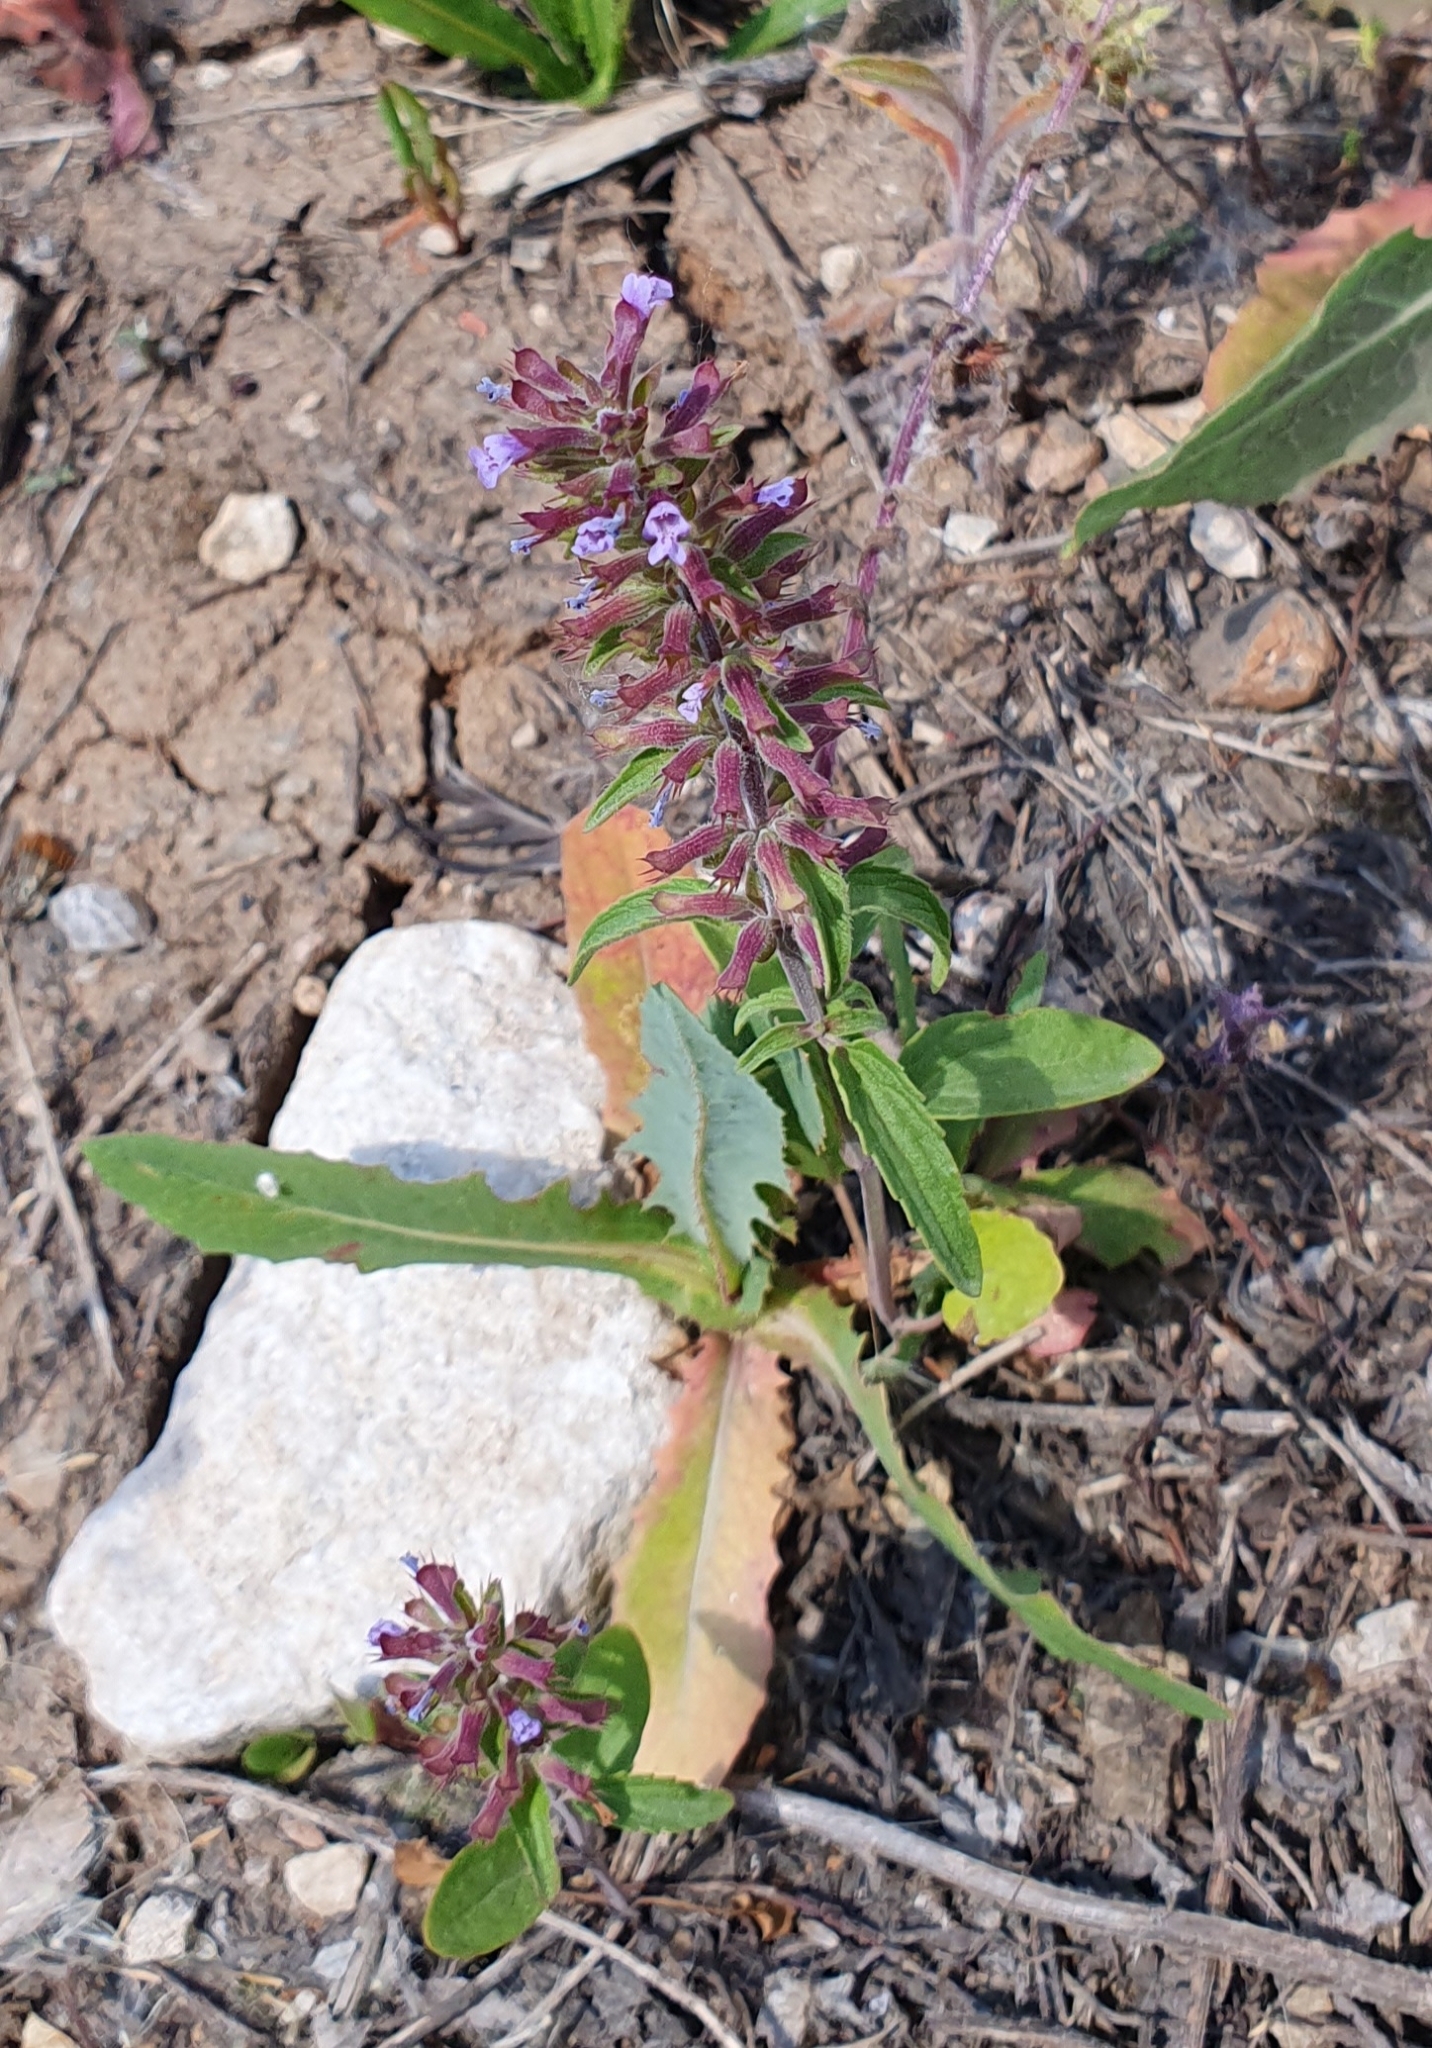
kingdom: Plantae
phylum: Tracheophyta
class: Magnoliopsida
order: Lamiales
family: Lamiaceae
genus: Dracocephalum
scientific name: Dracocephalum thymiflorum
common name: Thymeleaf dragonhead
